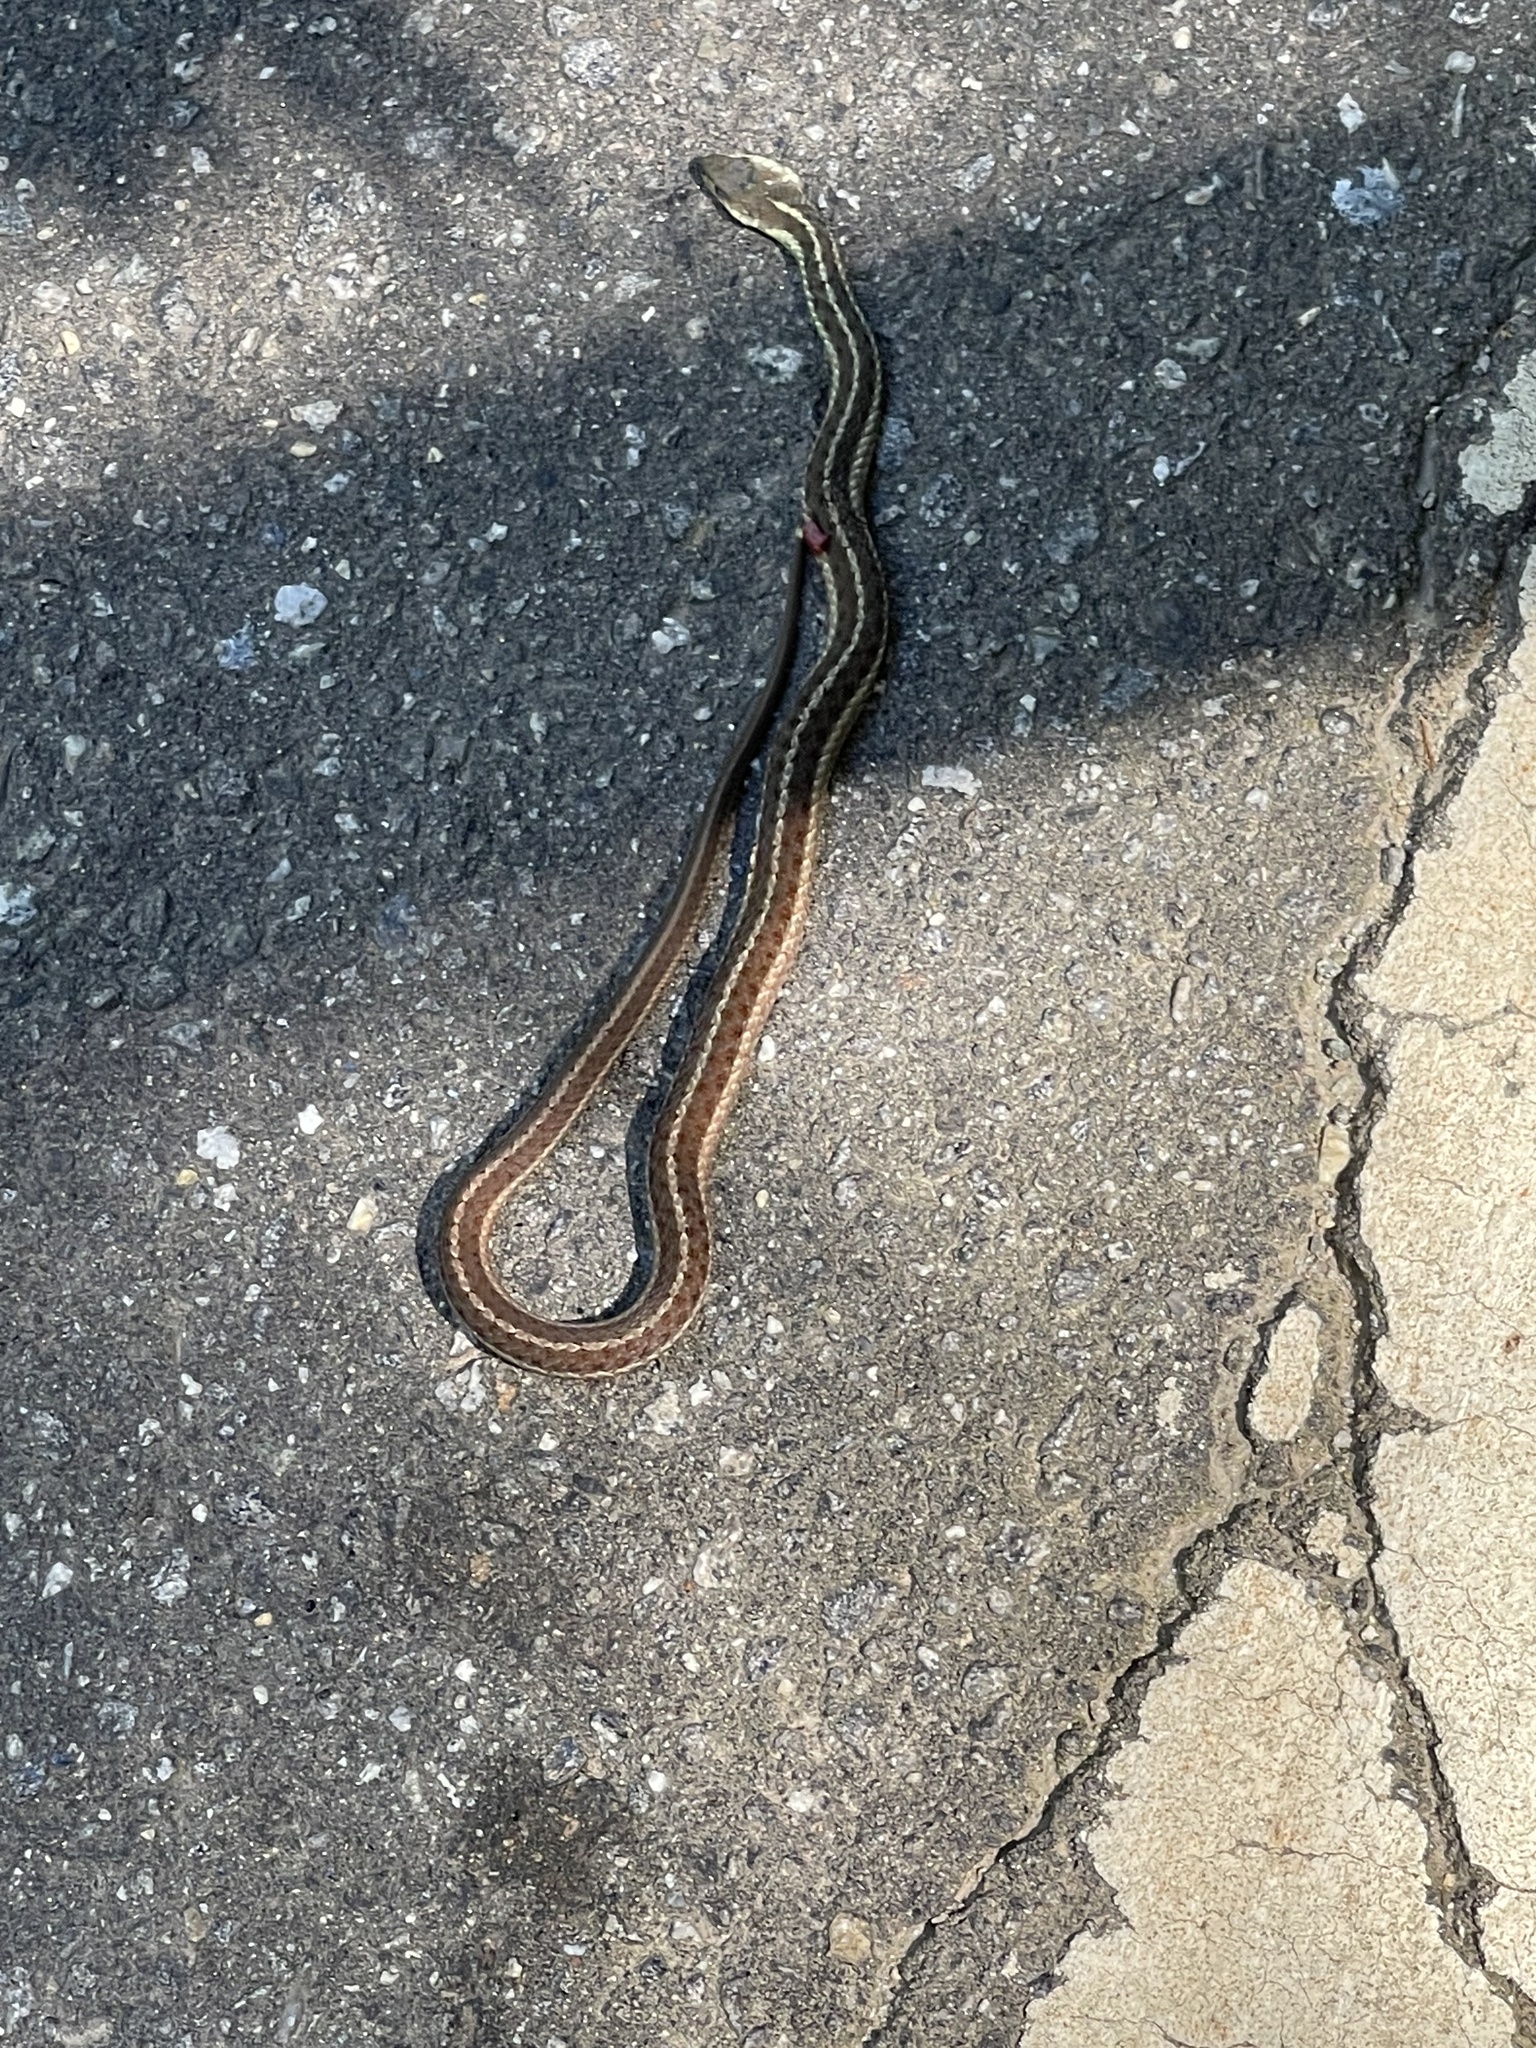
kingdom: Animalia
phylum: Chordata
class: Squamata
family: Colubridae
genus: Thamnophis
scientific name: Thamnophis sirtalis
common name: Common garter snake
